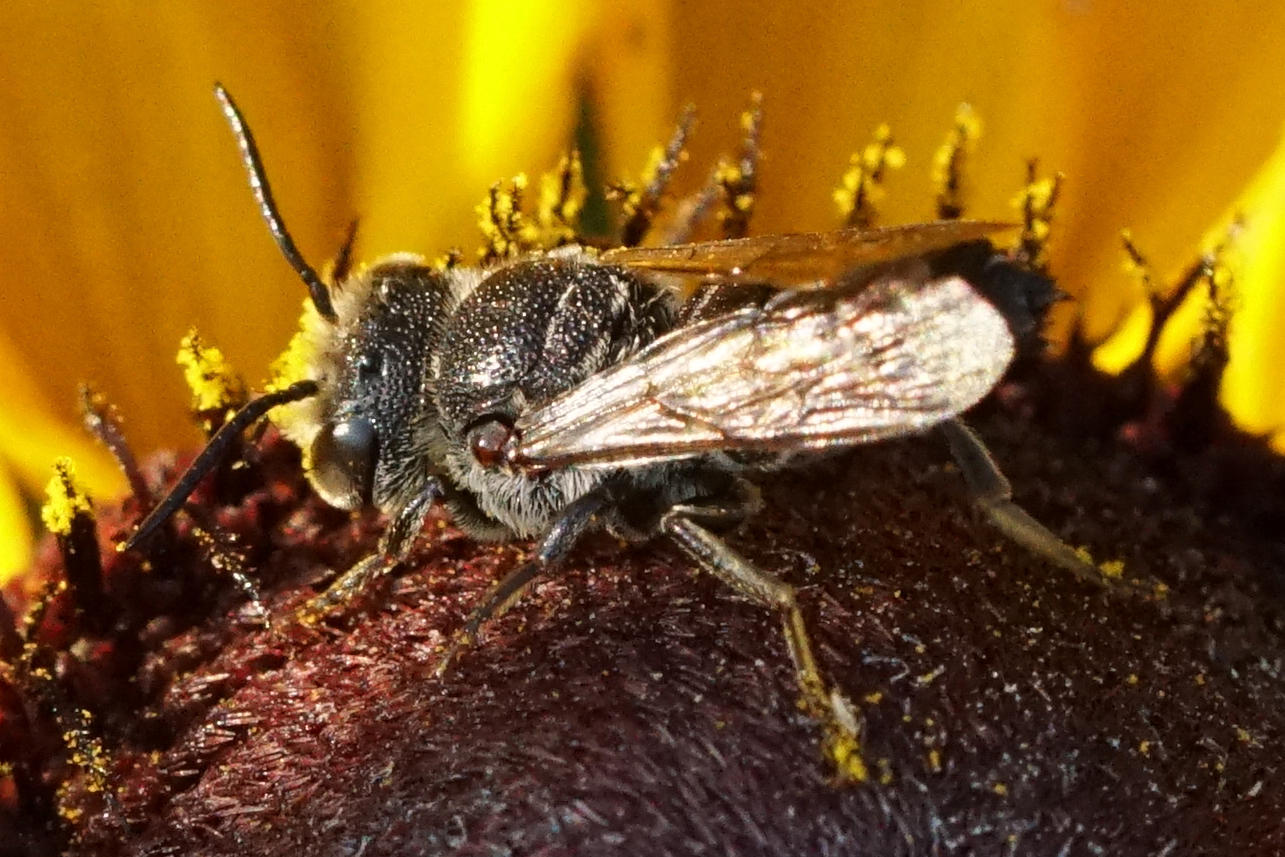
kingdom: Animalia
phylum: Arthropoda
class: Insecta
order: Hymenoptera
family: Megachilidae
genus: Coelioxys
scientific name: Coelioxys alternatus
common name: Alternate cuckoo-leaf-cutter
